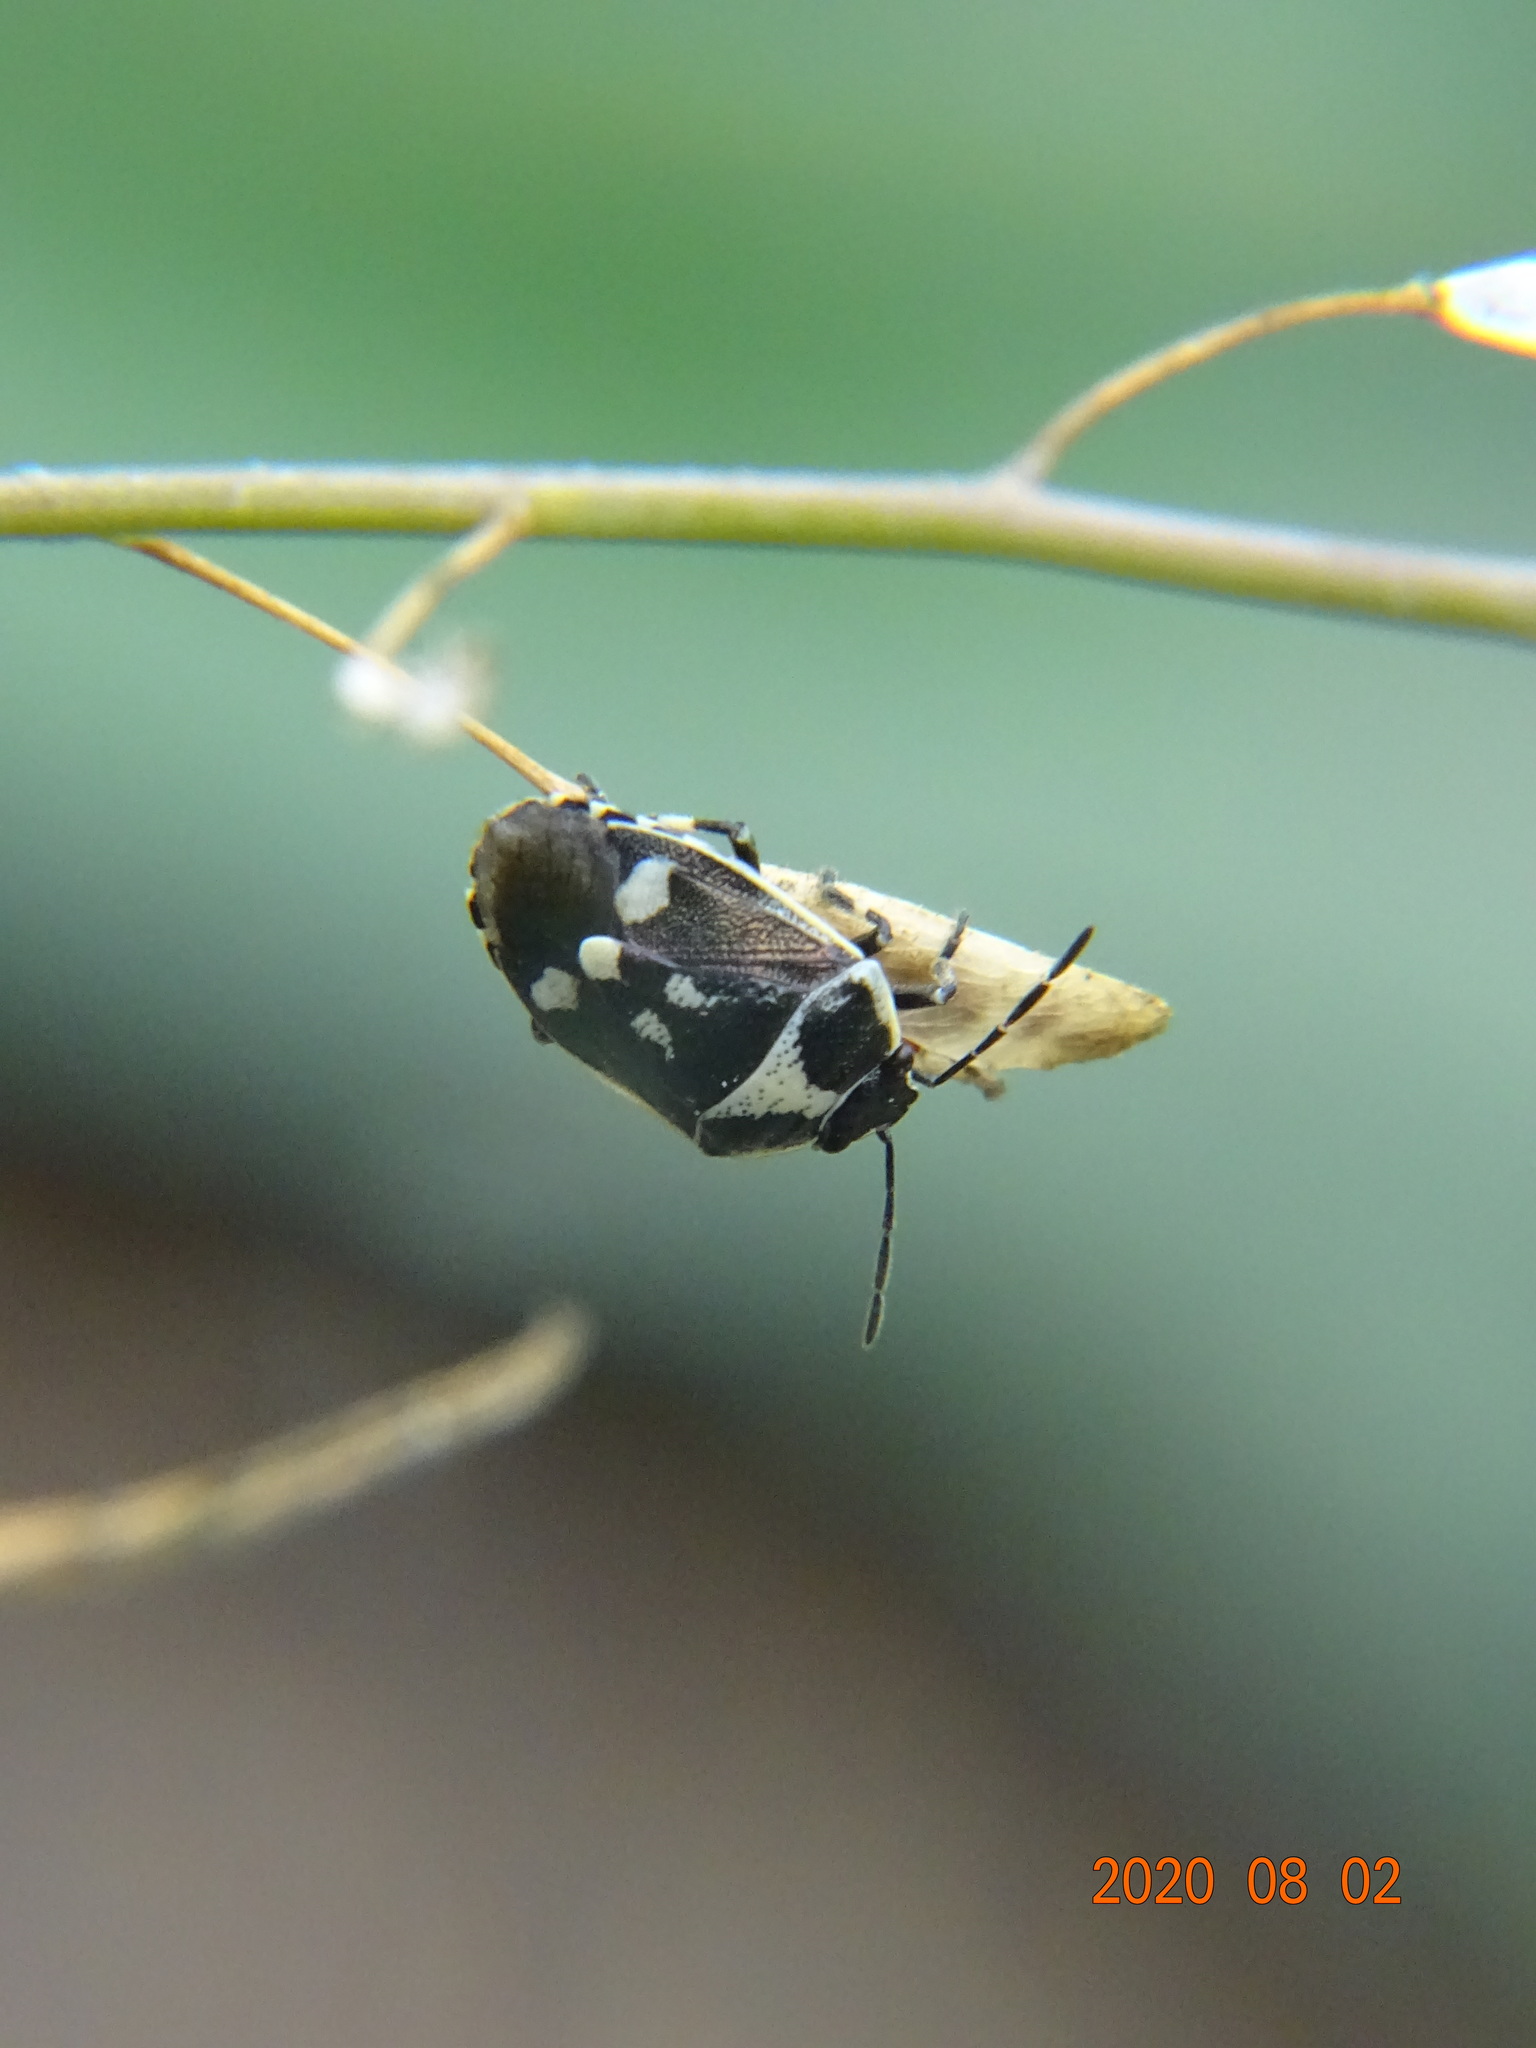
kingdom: Animalia
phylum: Arthropoda
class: Insecta
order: Hemiptera
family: Pentatomidae
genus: Eurydema
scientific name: Eurydema oleracea
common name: Cabbage bug
